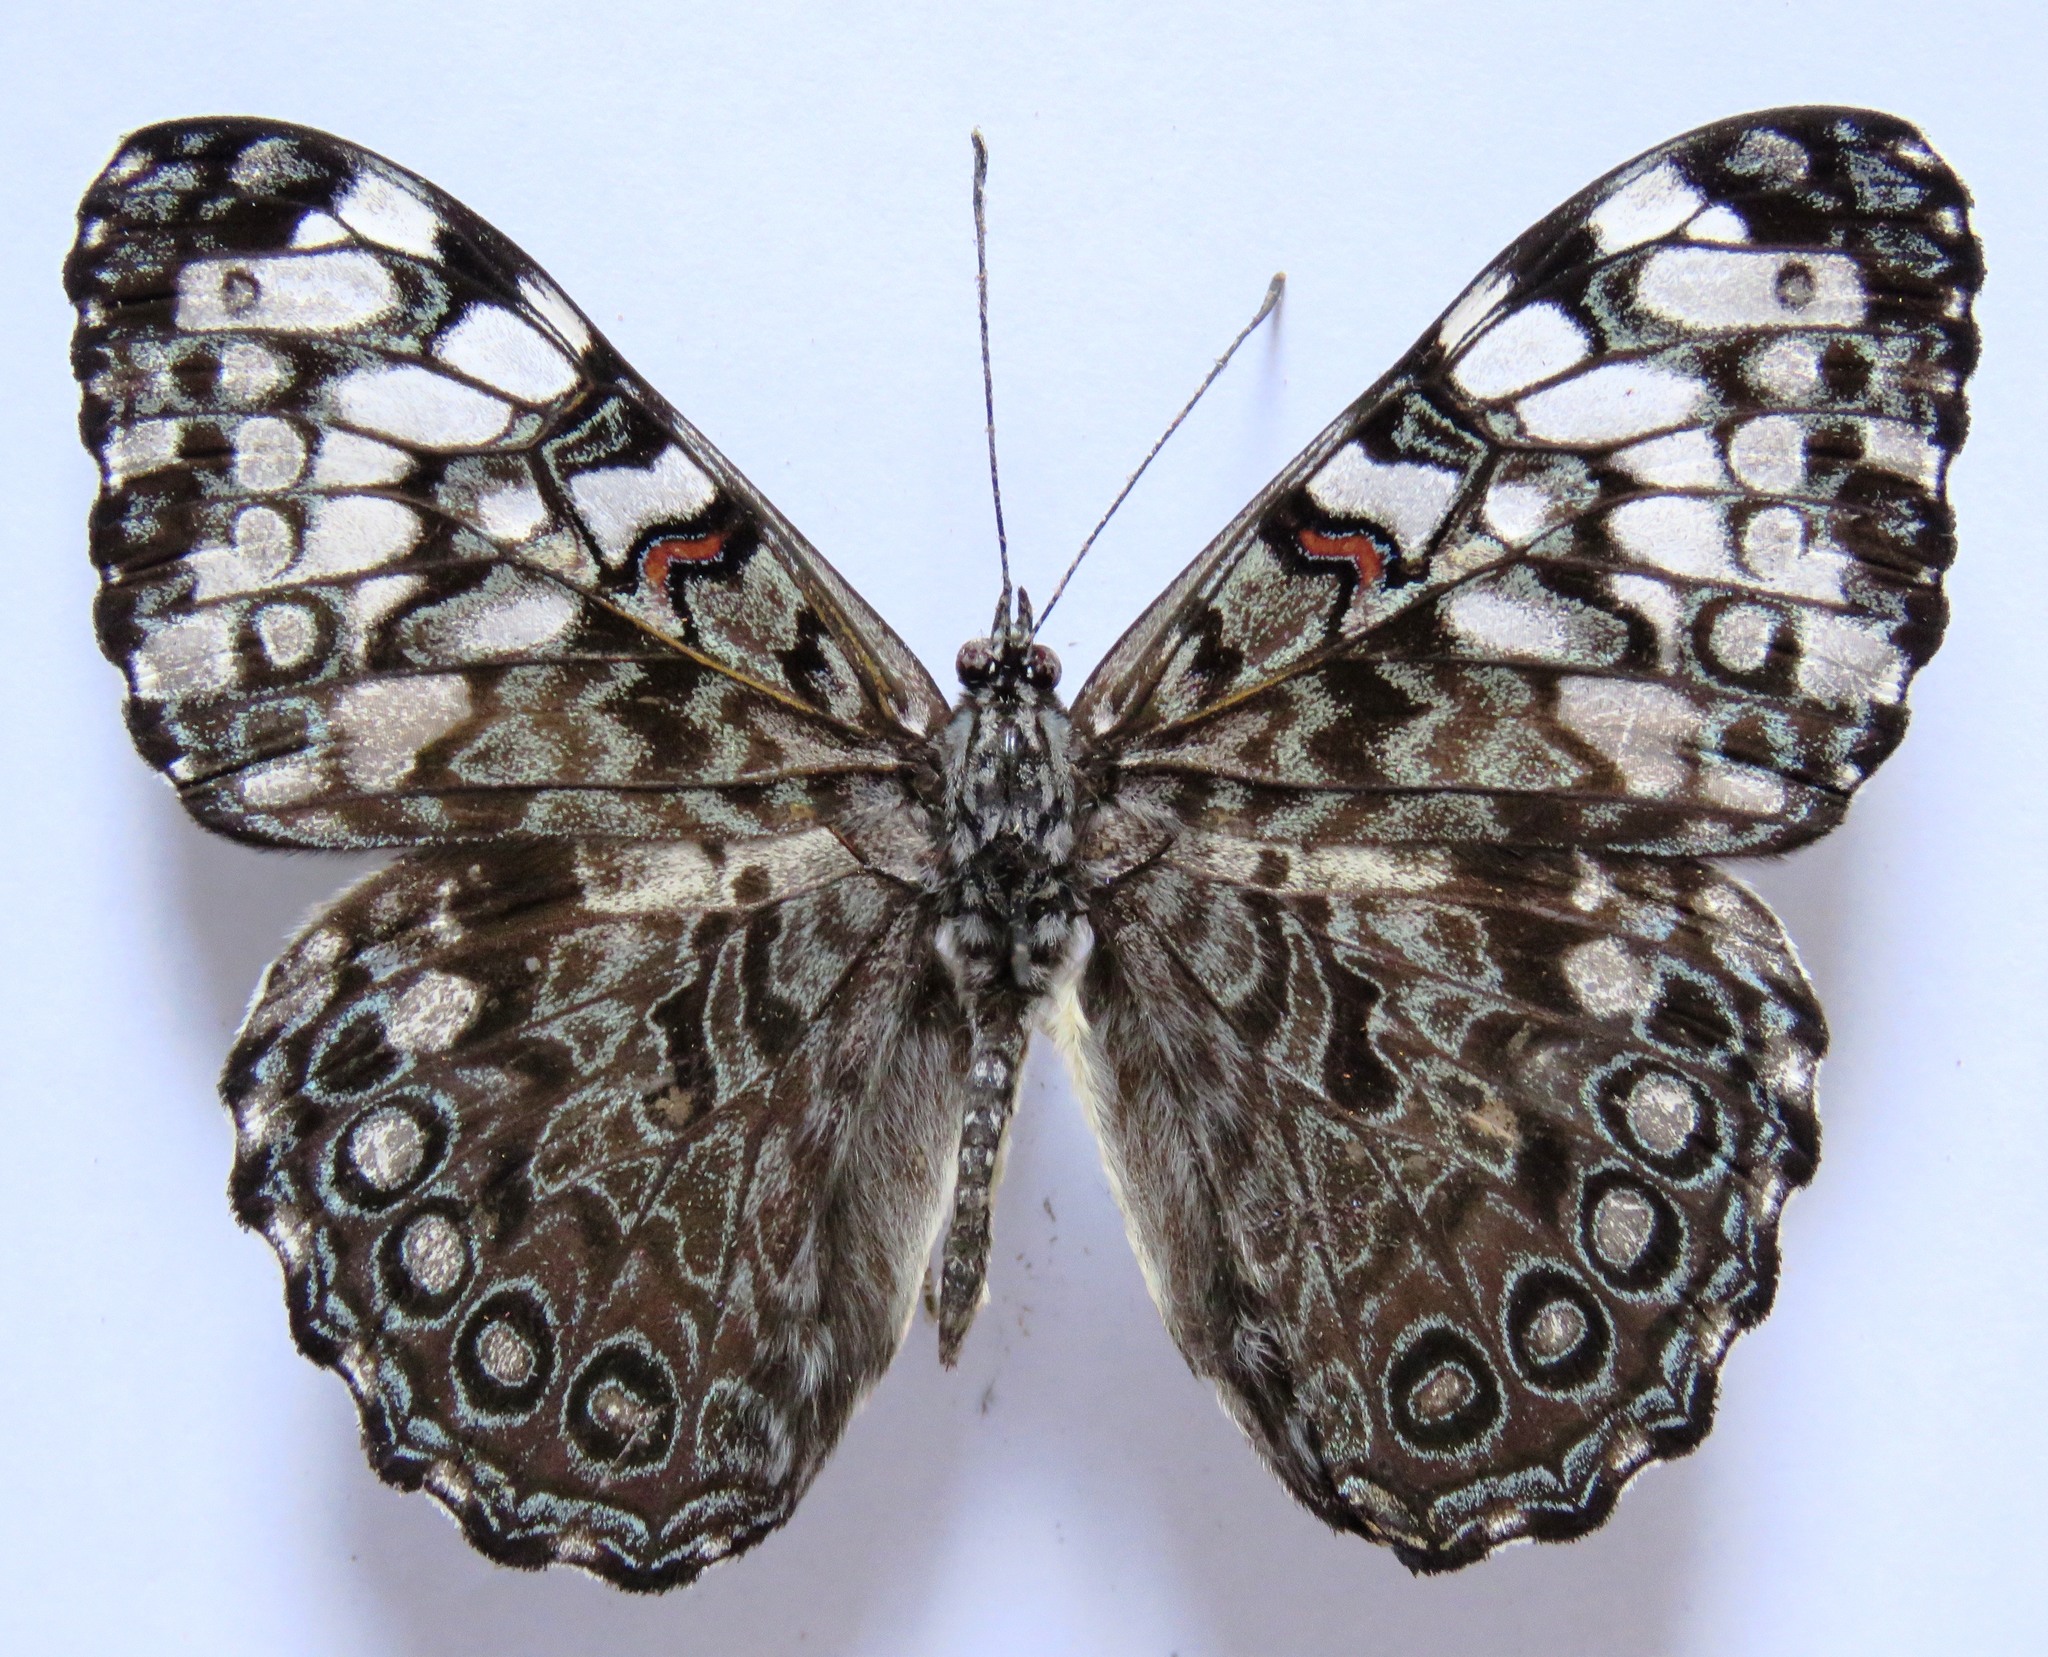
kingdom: Animalia
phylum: Arthropoda
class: Insecta
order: Lepidoptera
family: Nymphalidae
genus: Hamadryas
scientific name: Hamadryas guatemalena
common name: Guatemalan cracker
